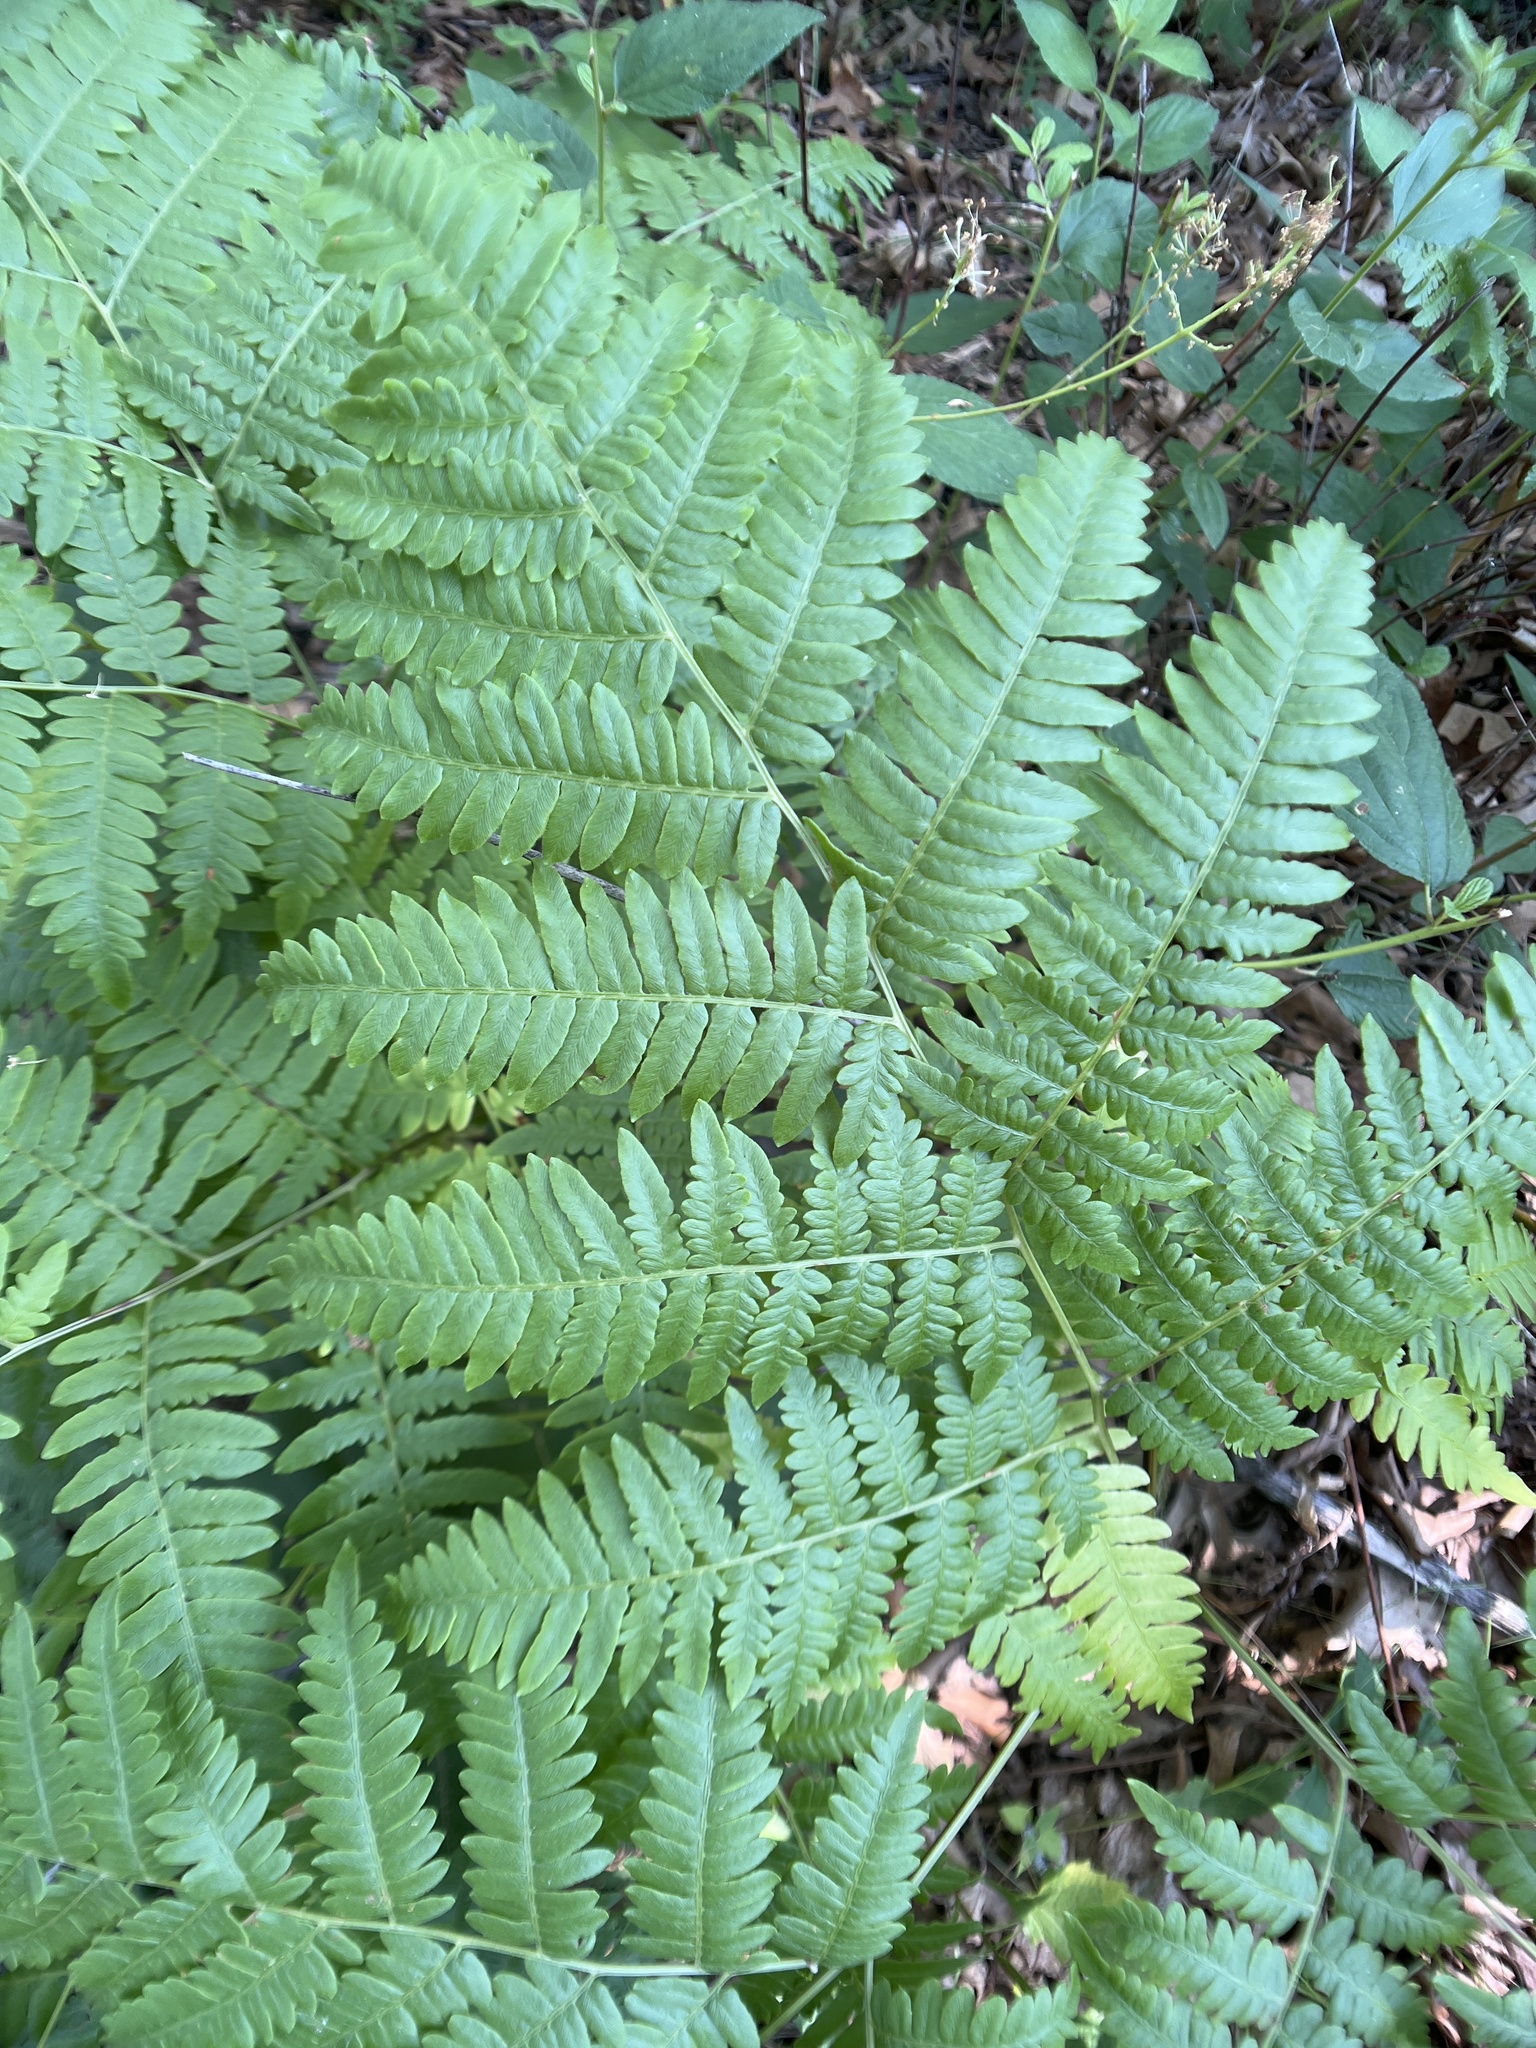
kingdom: Plantae
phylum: Tracheophyta
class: Polypodiopsida
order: Polypodiales
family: Dennstaedtiaceae
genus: Pteridium
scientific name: Pteridium aquilinum
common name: Bracken
